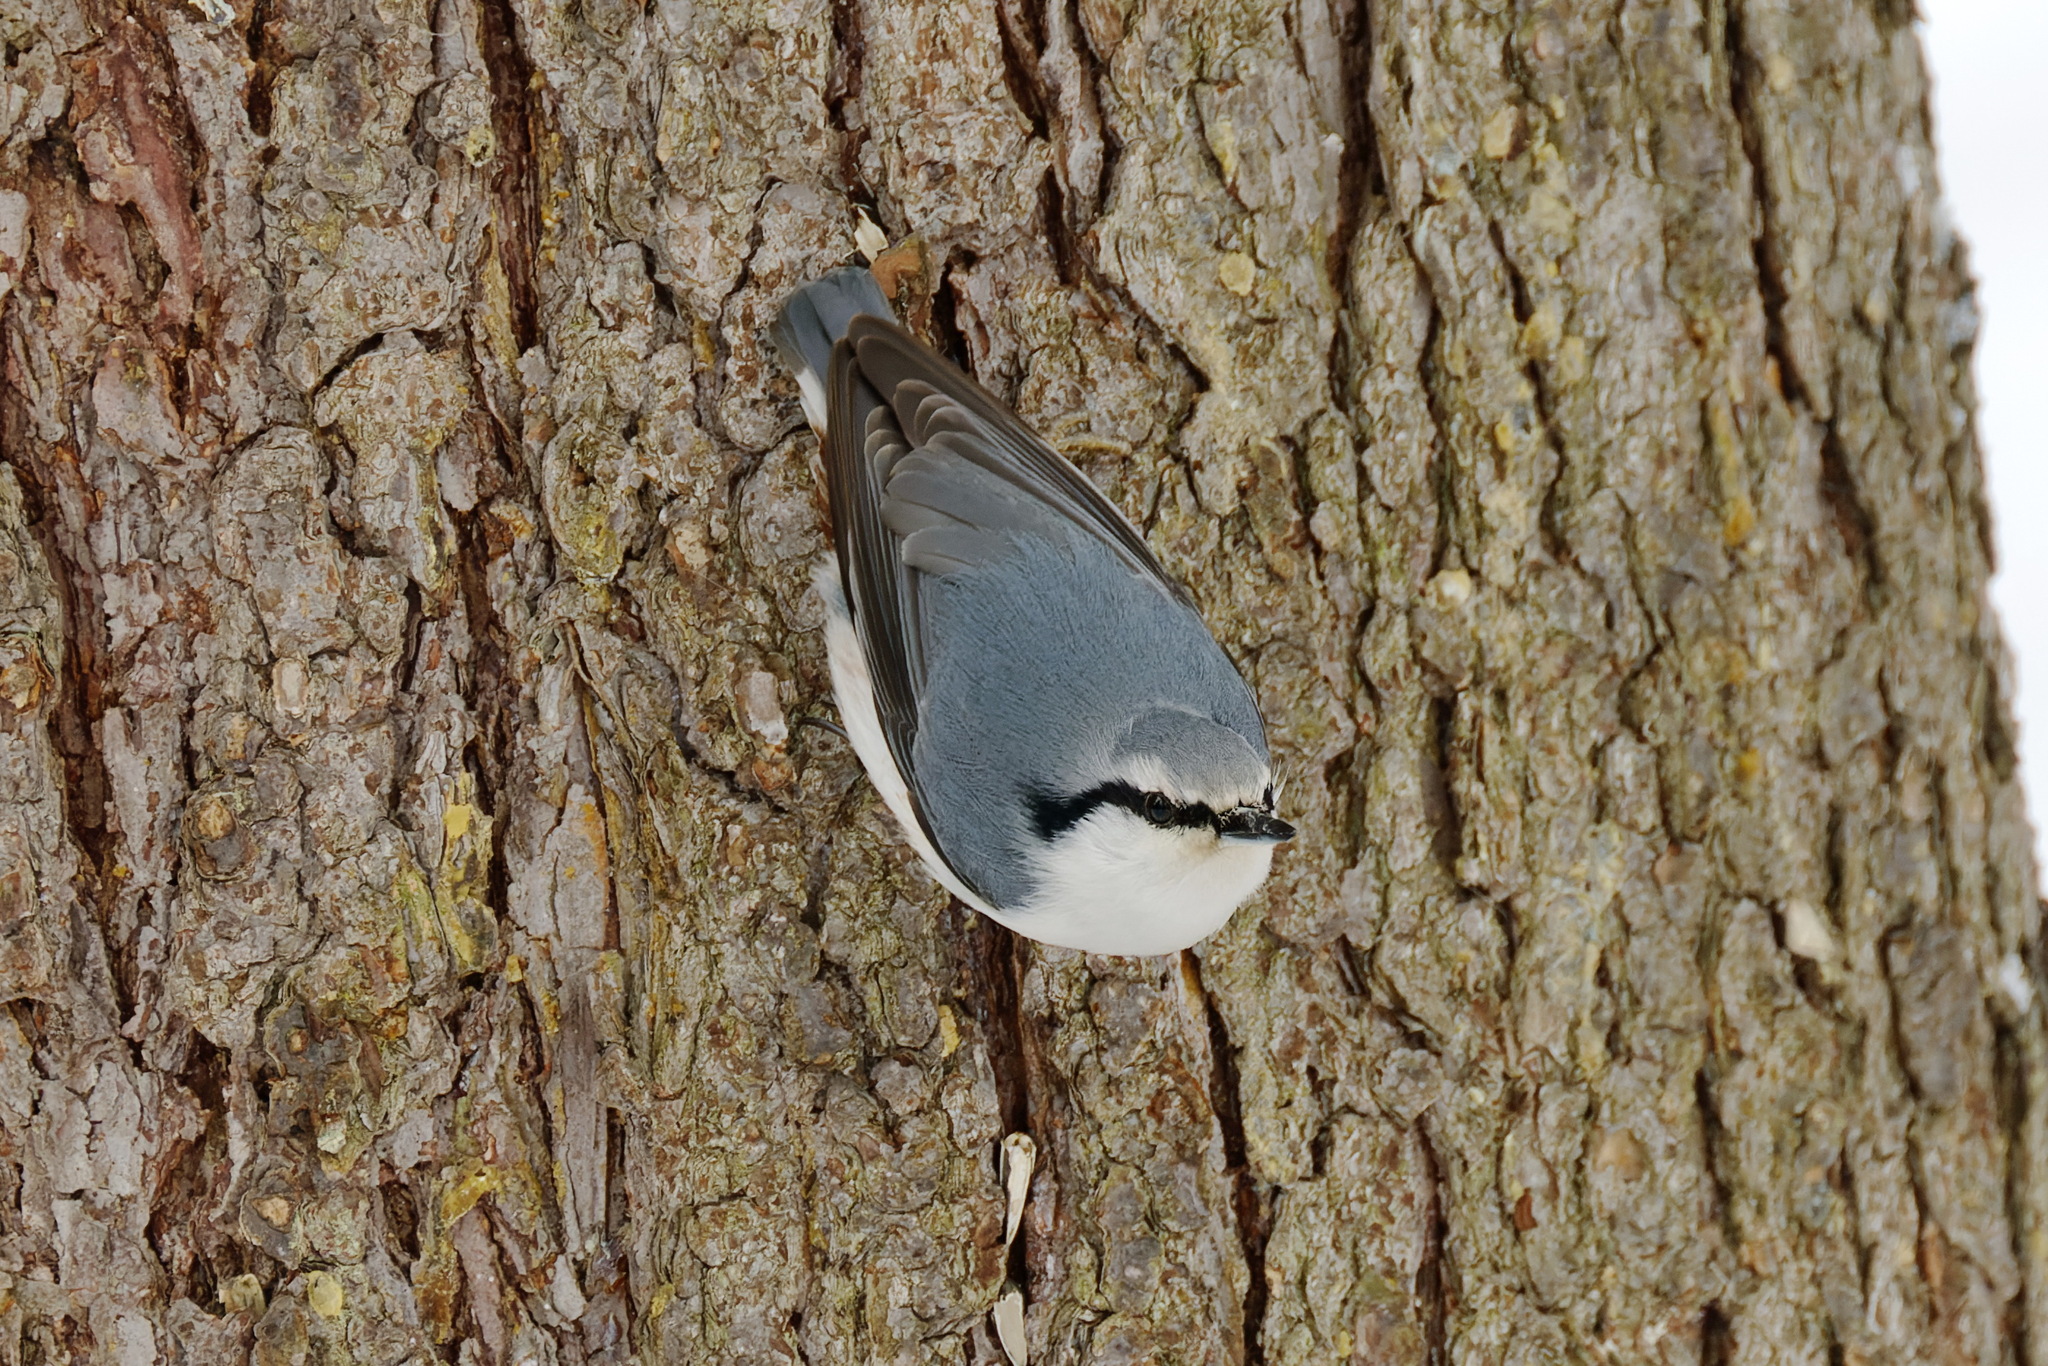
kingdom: Animalia
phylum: Chordata
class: Aves
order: Passeriformes
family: Sittidae
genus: Sitta
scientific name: Sitta europaea
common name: Eurasian nuthatch
